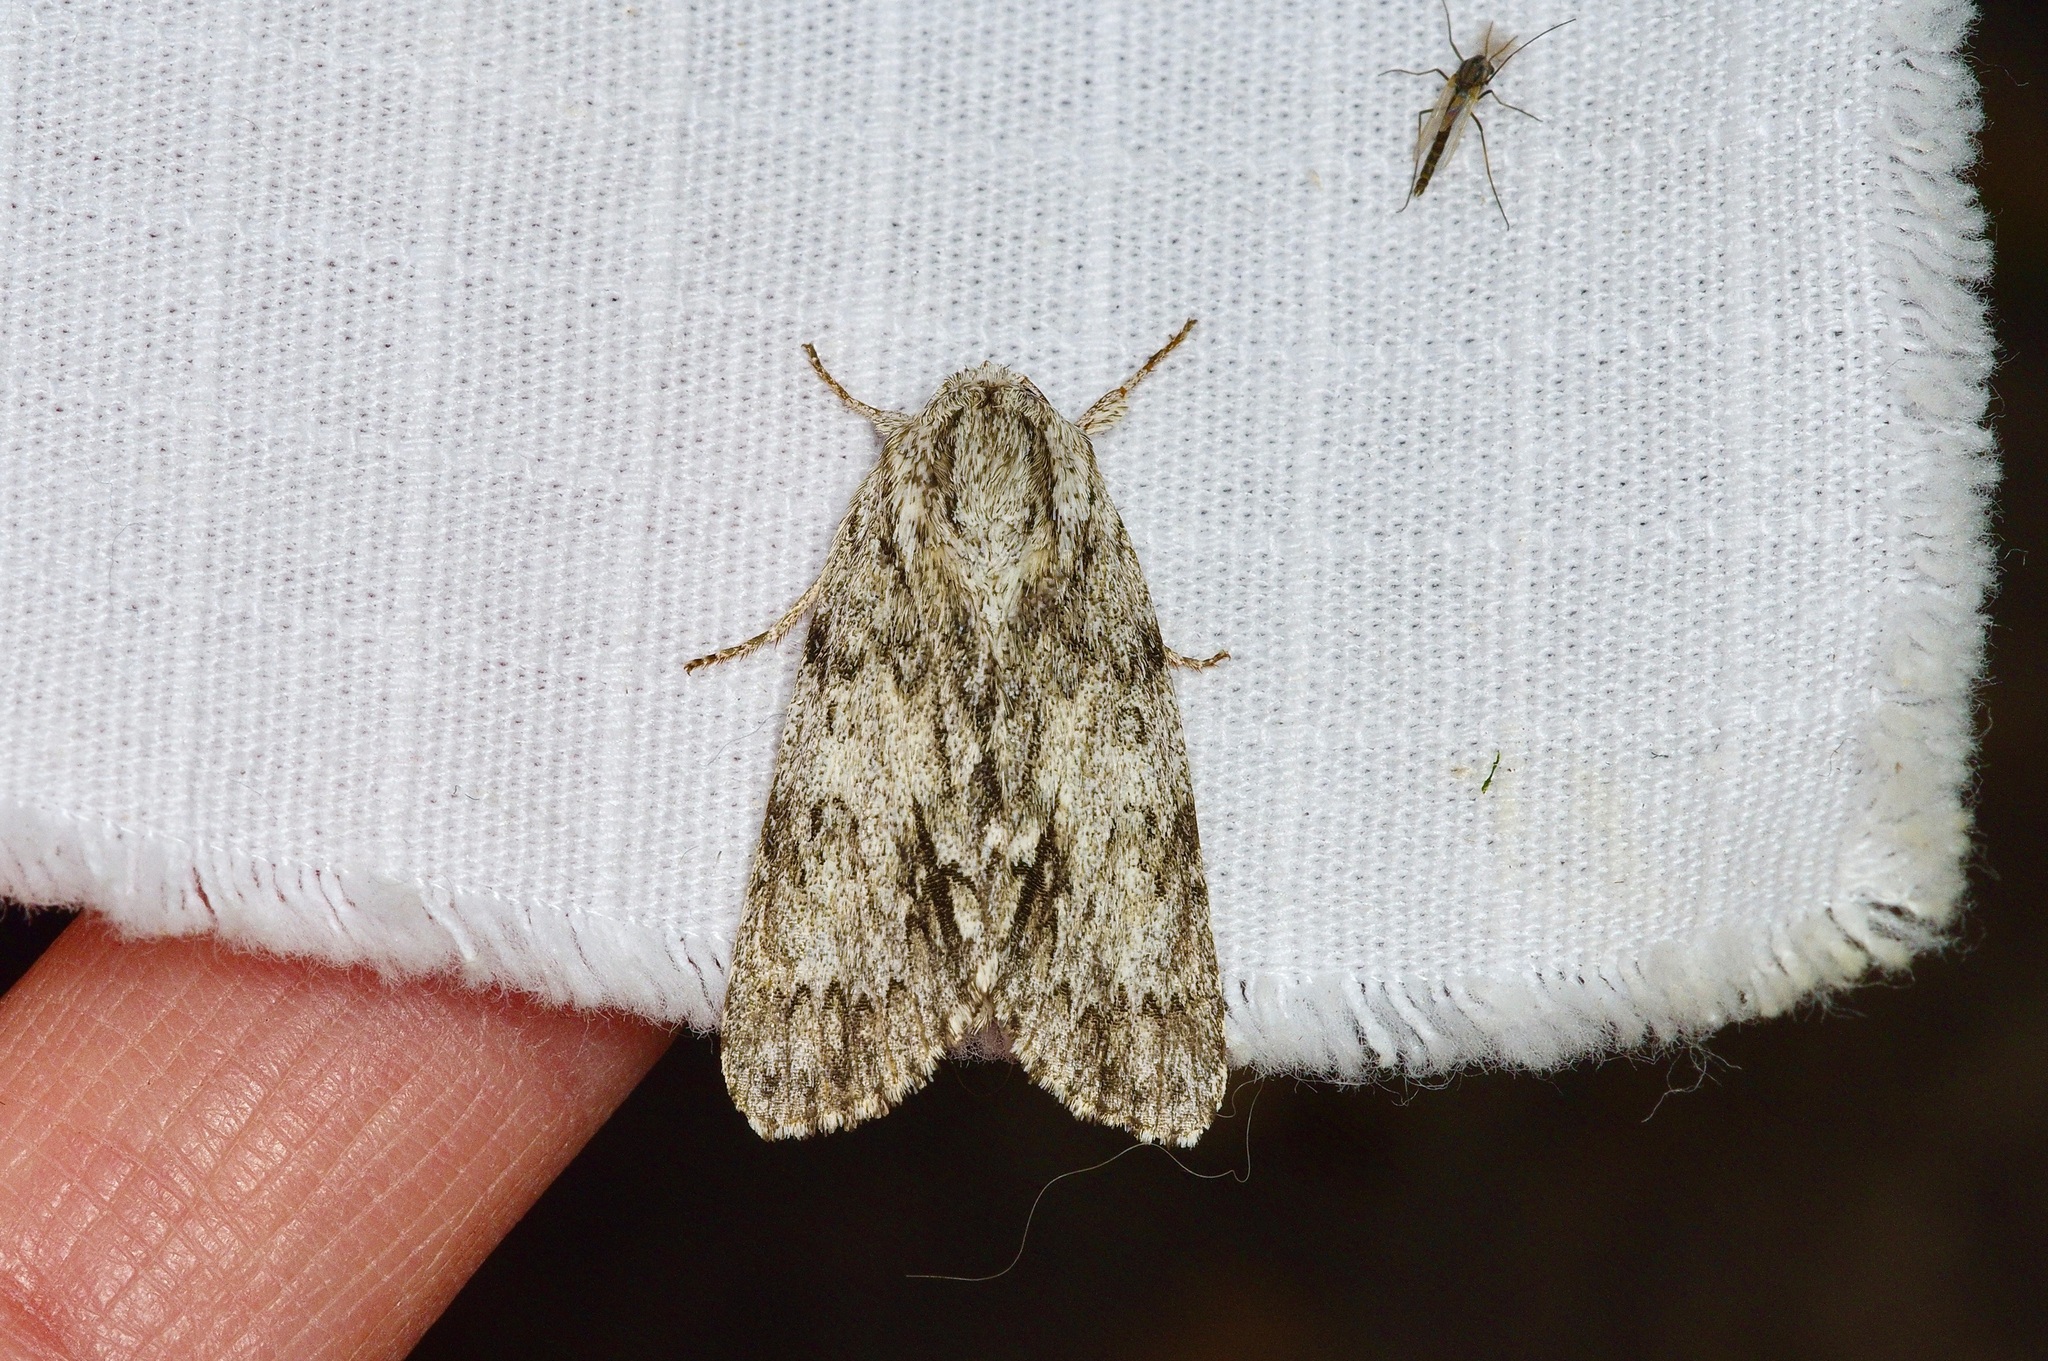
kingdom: Animalia
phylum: Arthropoda
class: Insecta
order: Lepidoptera
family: Noctuidae
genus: Acronicta
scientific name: Acronicta longa
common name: Long-winged dagger
